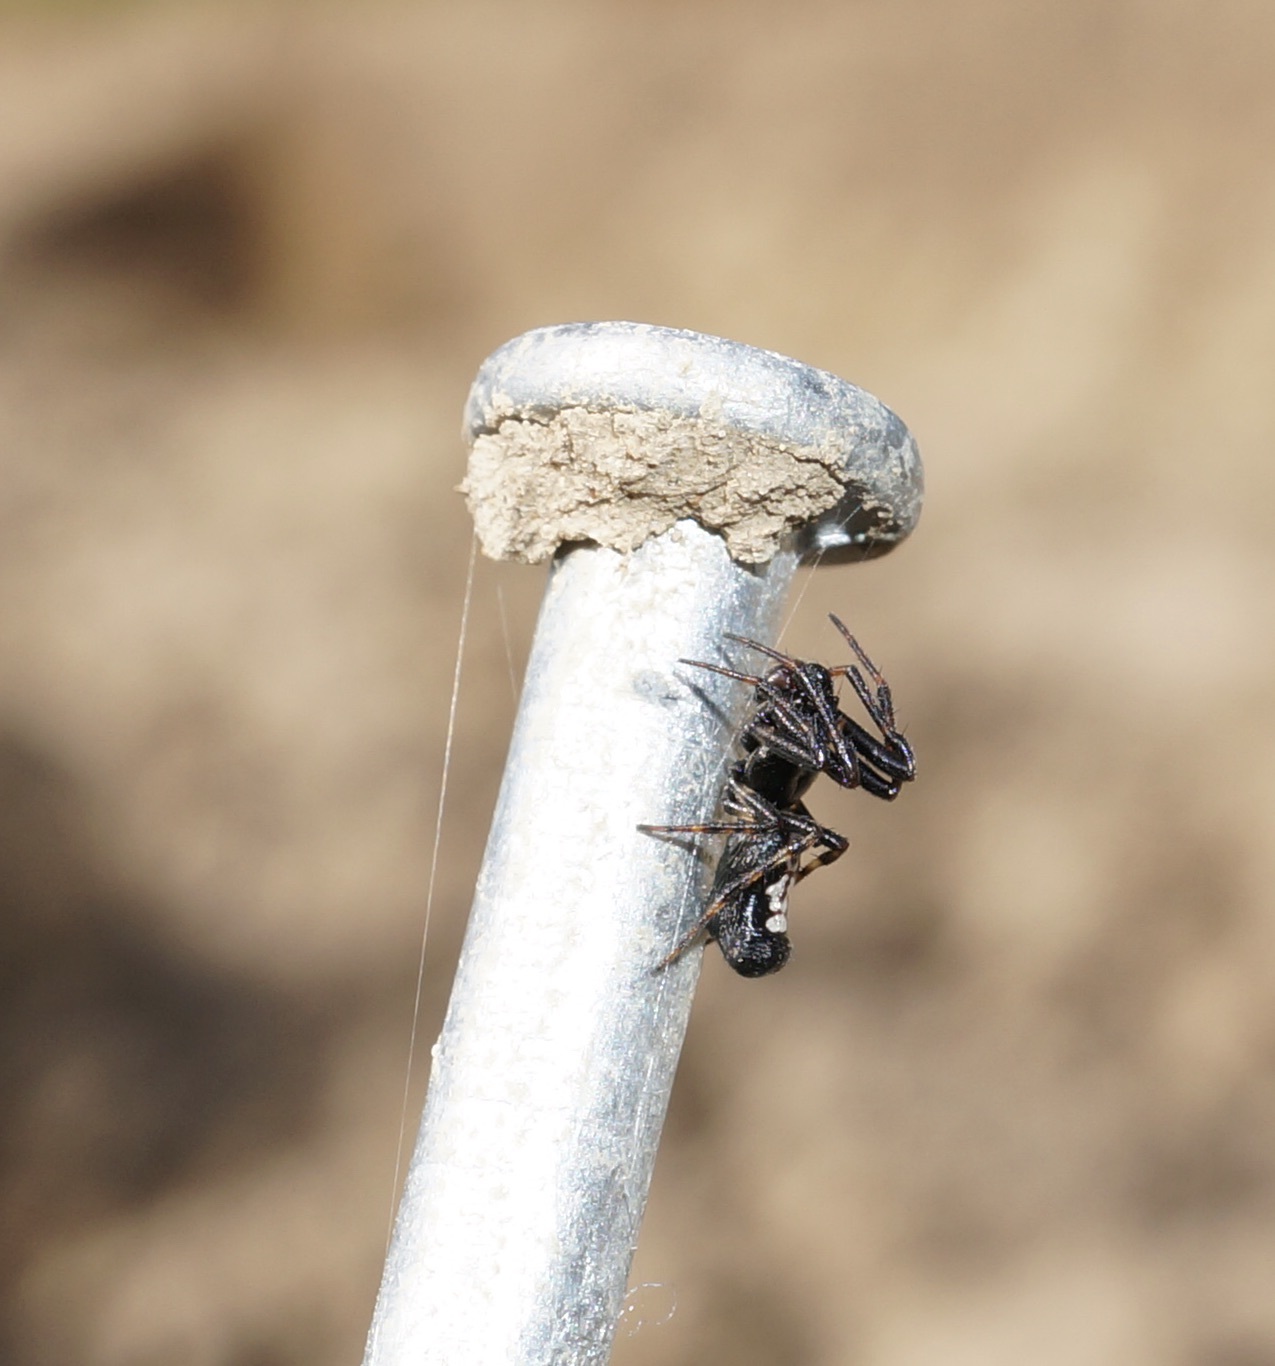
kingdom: Animalia
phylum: Arthropoda
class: Arachnida
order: Araneae
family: Araneidae
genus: Cyclosa
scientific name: Cyclosa trilobata
